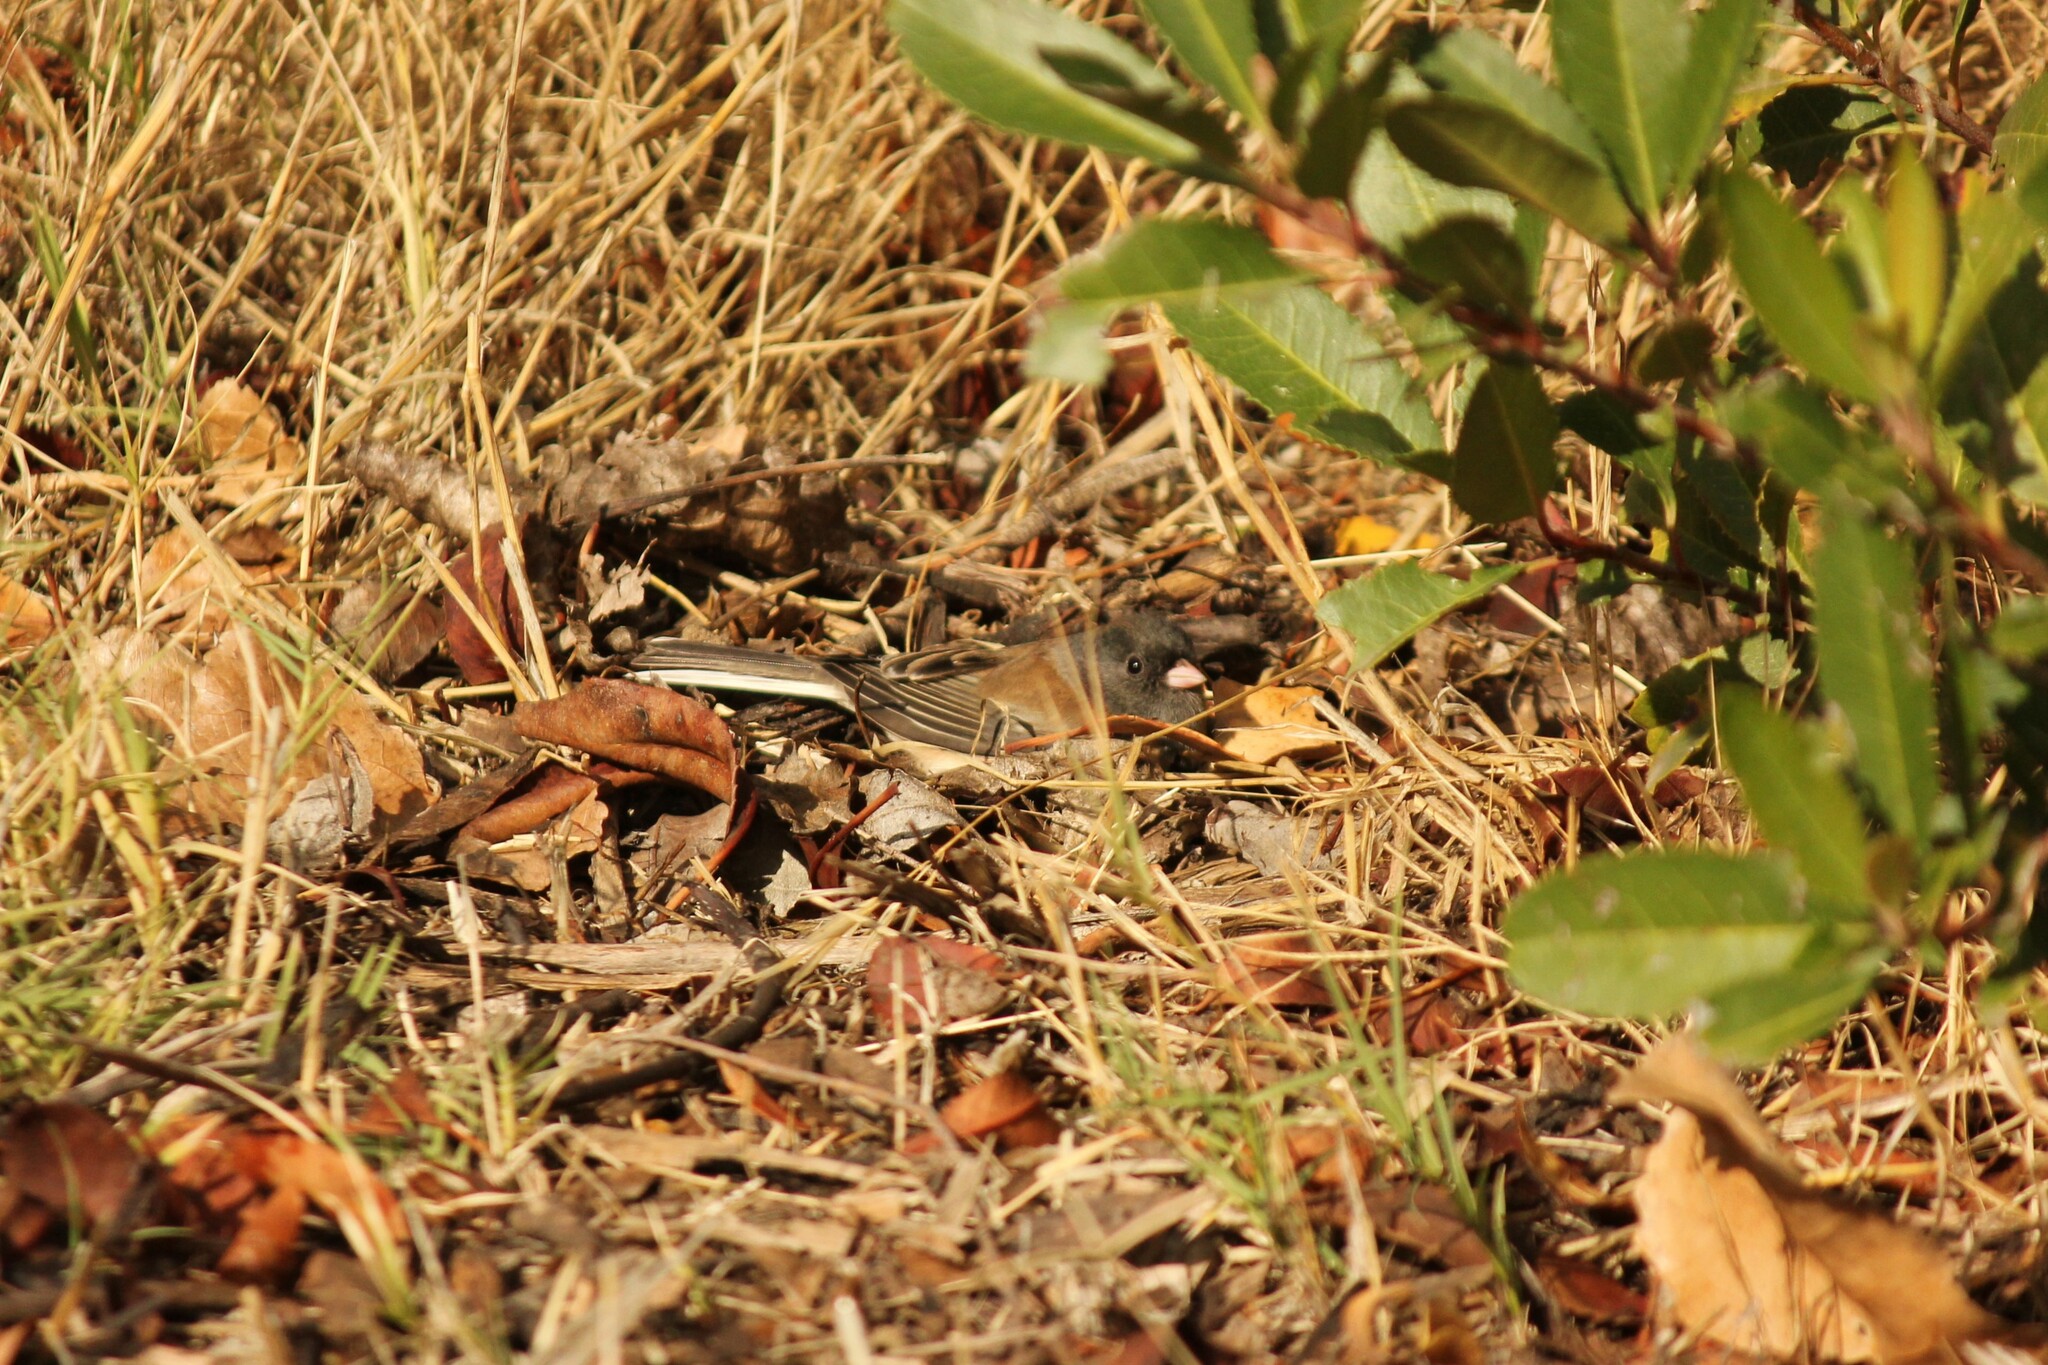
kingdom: Animalia
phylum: Chordata
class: Aves
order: Passeriformes
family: Passerellidae
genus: Junco
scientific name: Junco hyemalis
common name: Dark-eyed junco
